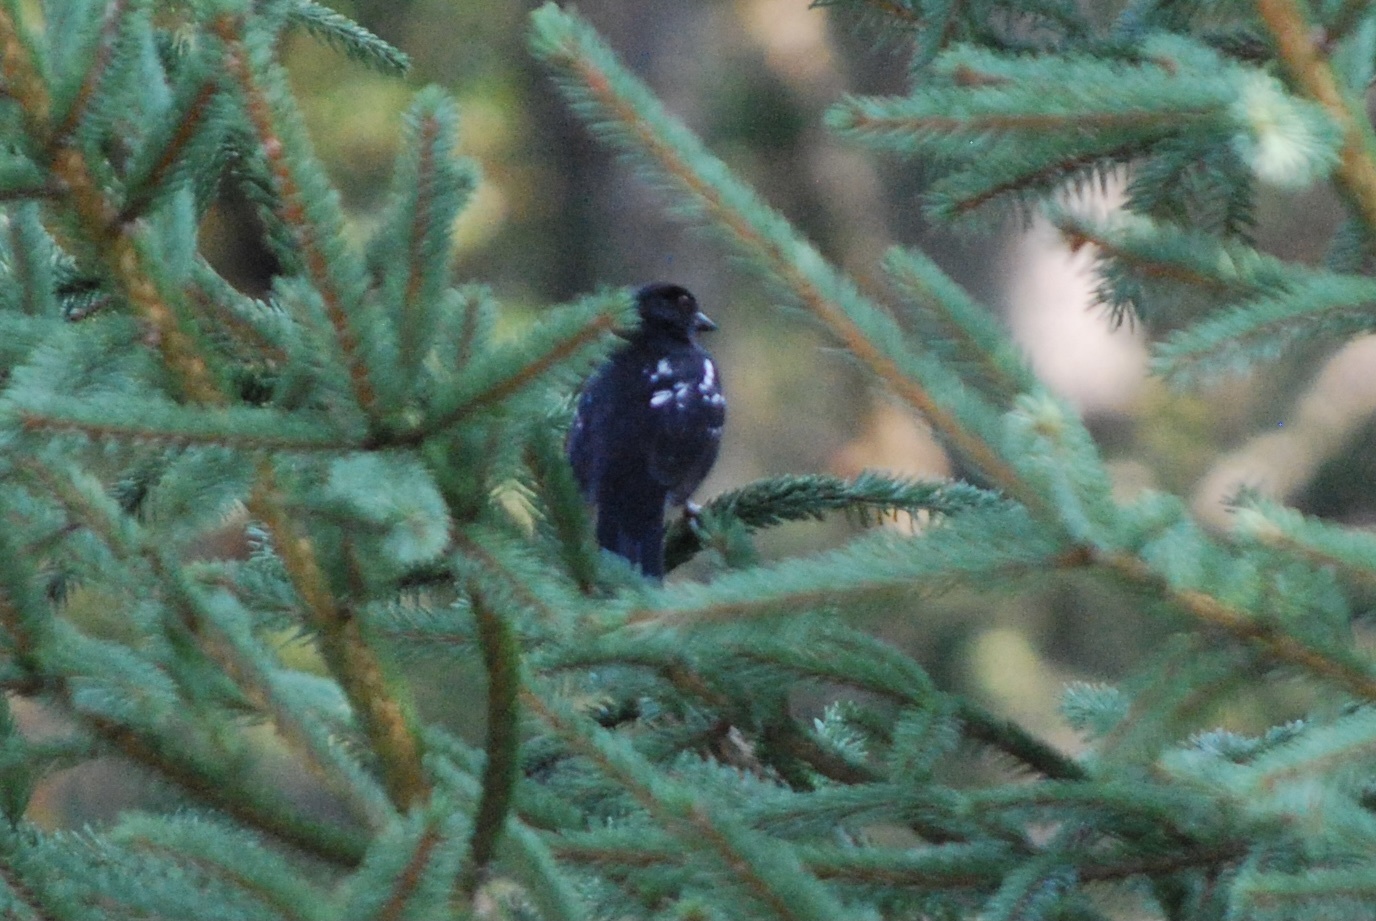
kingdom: Animalia
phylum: Chordata
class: Aves
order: Passeriformes
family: Passerellidae
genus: Pipilo
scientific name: Pipilo maculatus
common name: Spotted towhee
